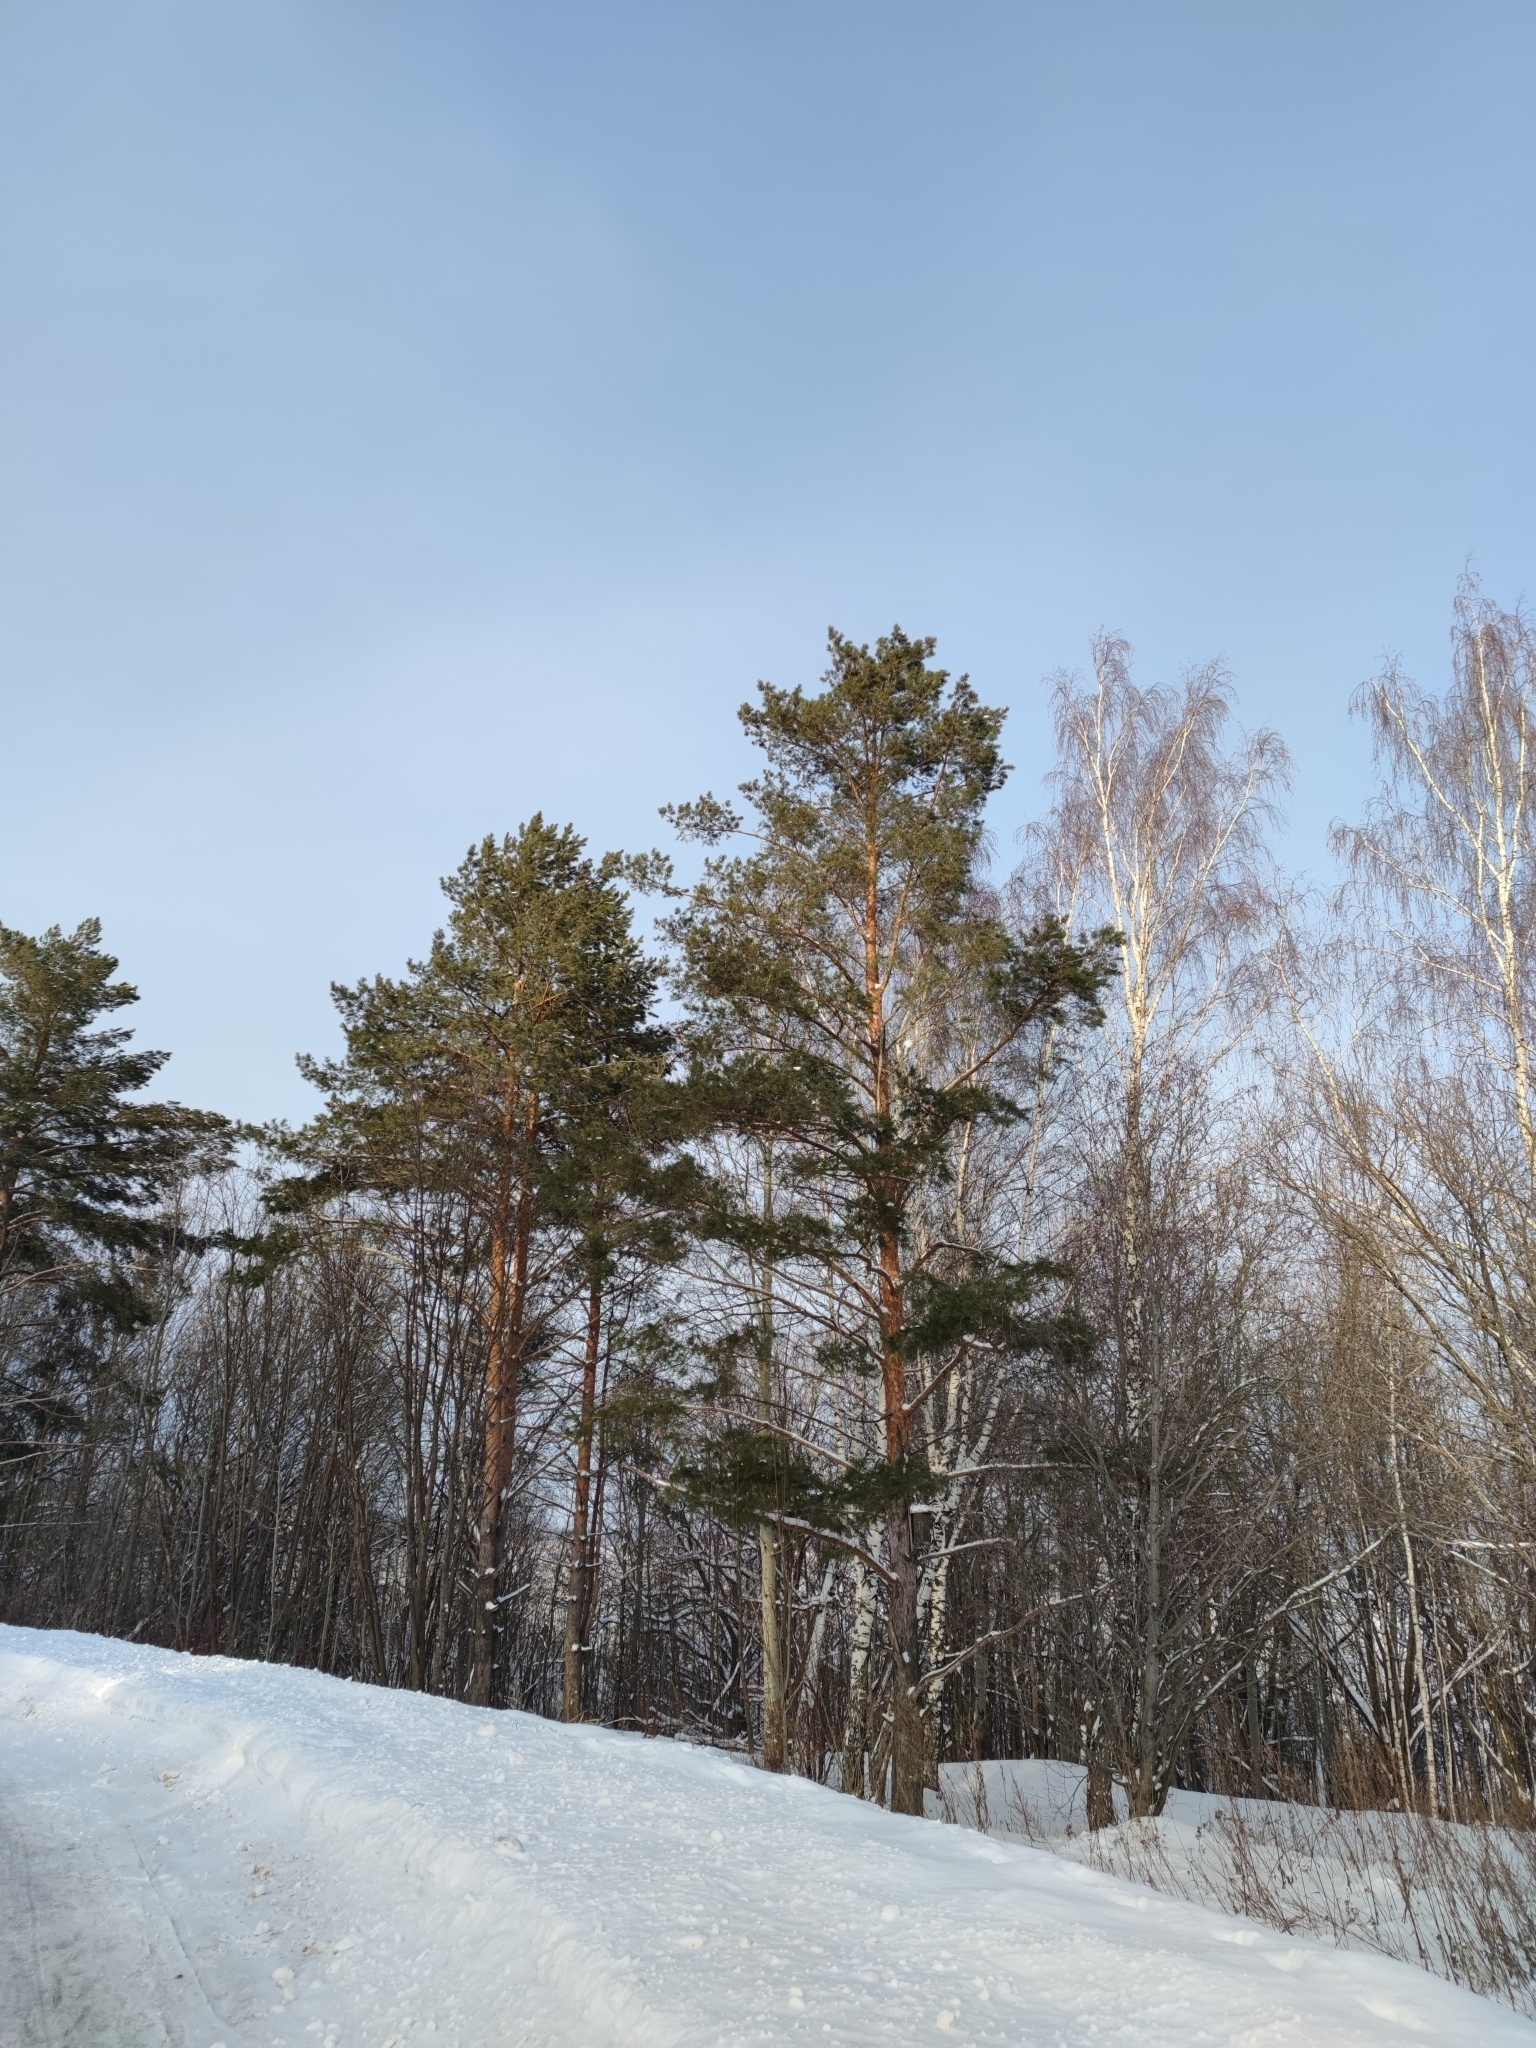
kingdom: Plantae
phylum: Tracheophyta
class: Pinopsida
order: Pinales
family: Pinaceae
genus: Pinus
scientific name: Pinus sylvestris
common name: Scots pine
